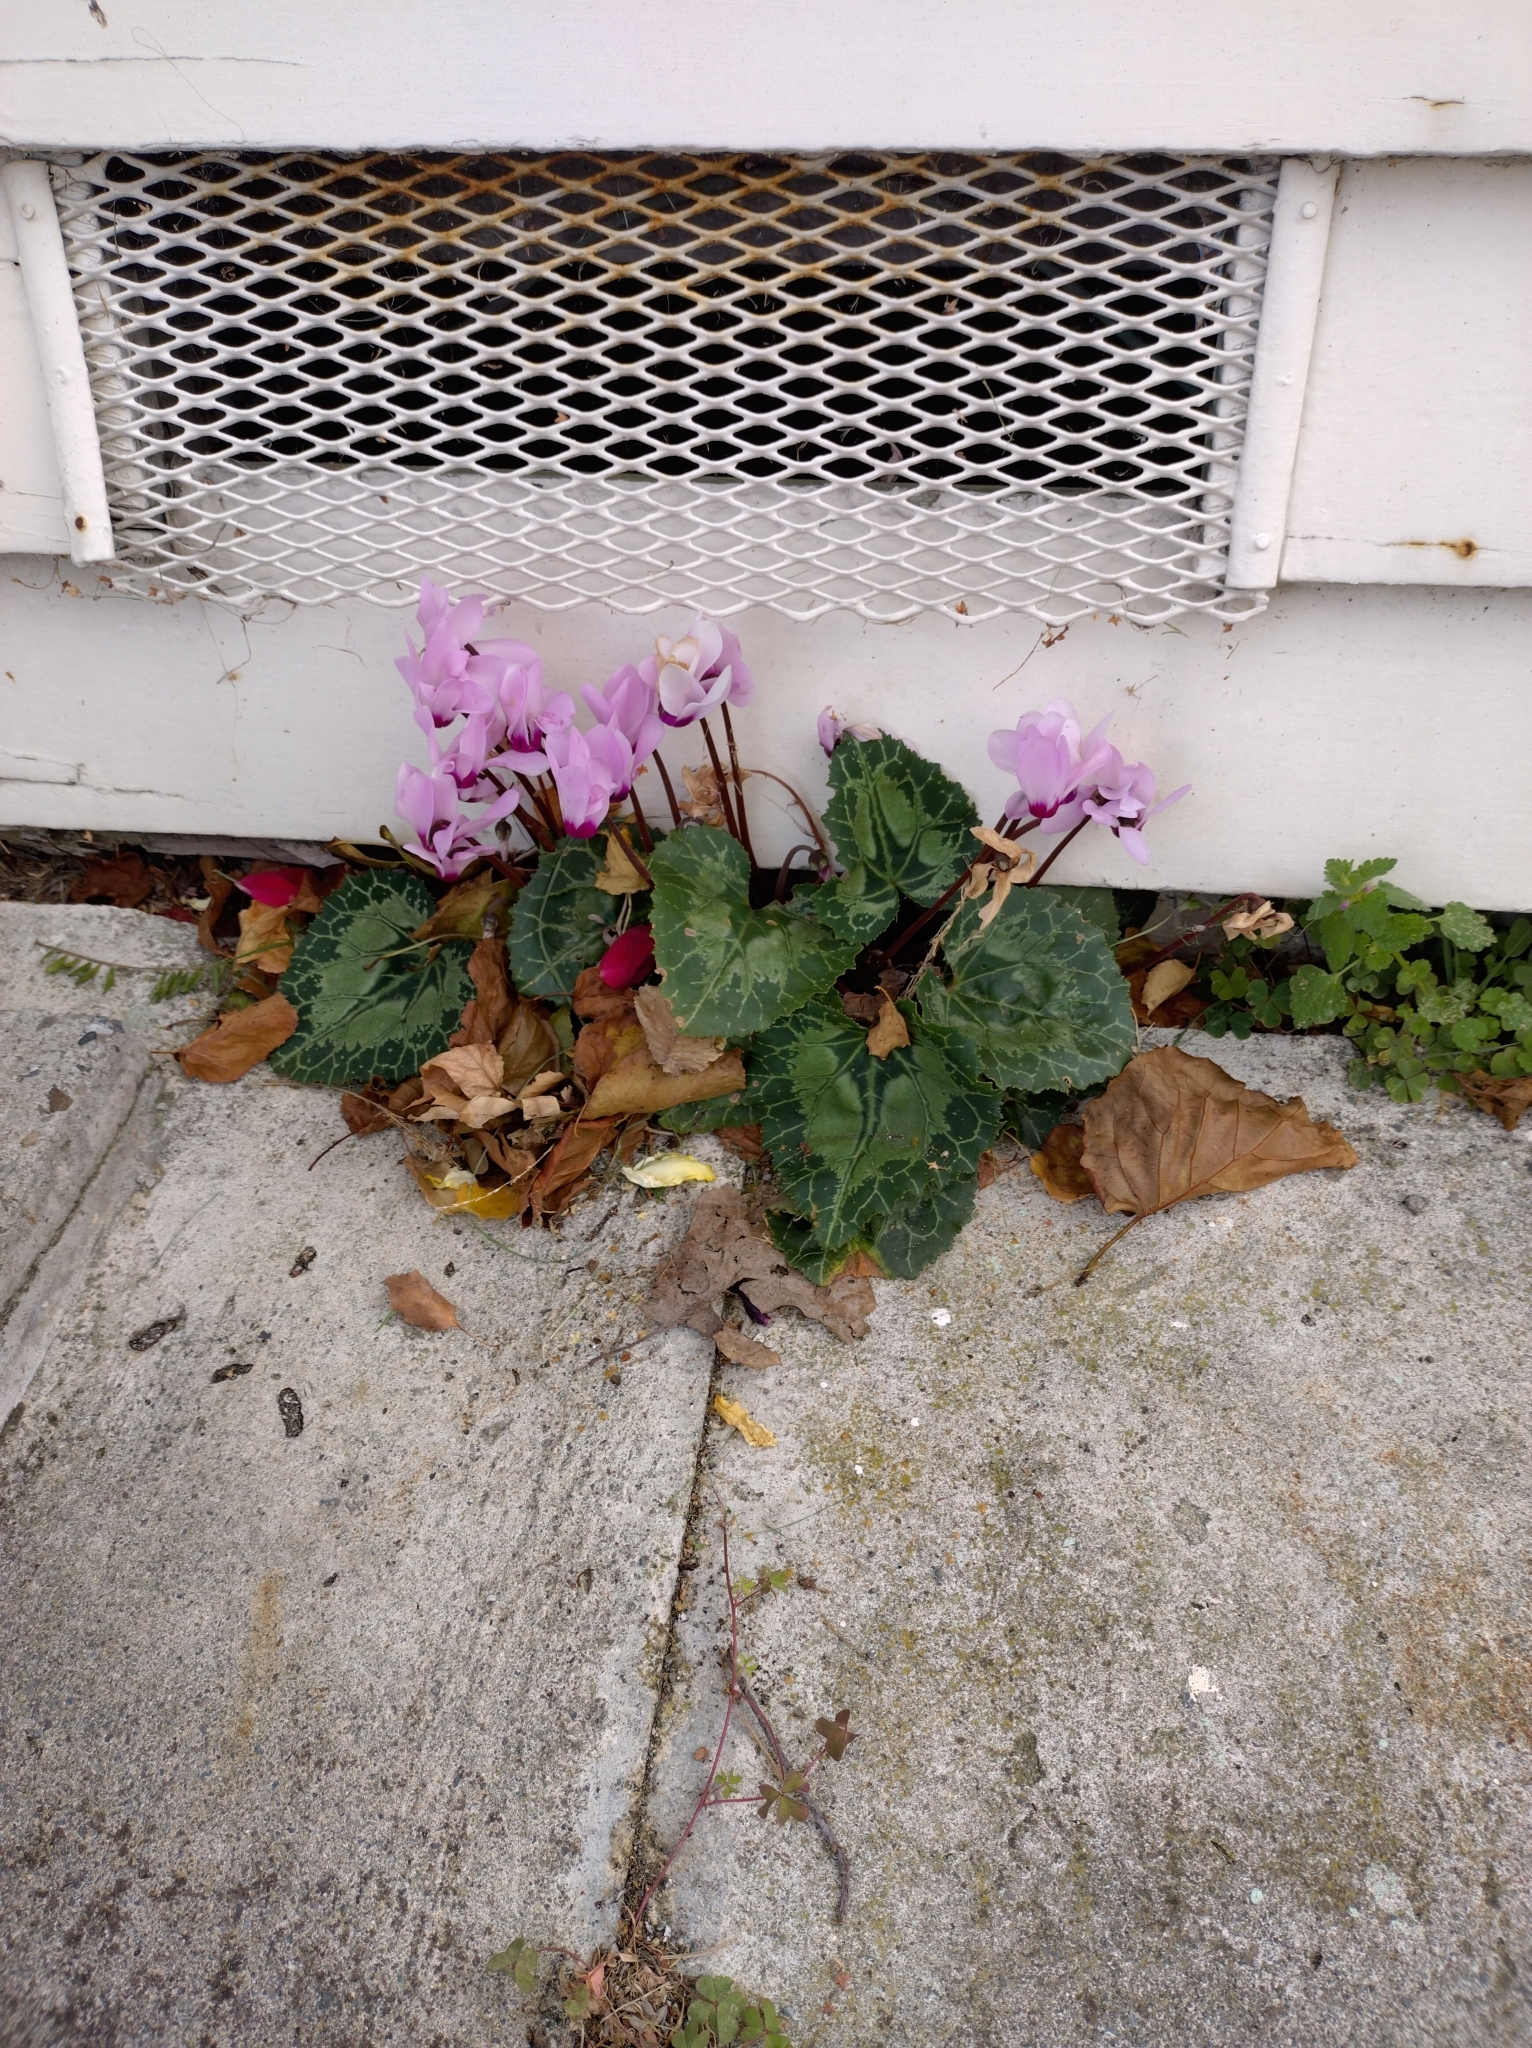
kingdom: Plantae
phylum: Tracheophyta
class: Magnoliopsida
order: Ericales
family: Primulaceae
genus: Cyclamen
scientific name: Cyclamen hederifolium
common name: Sowbread
